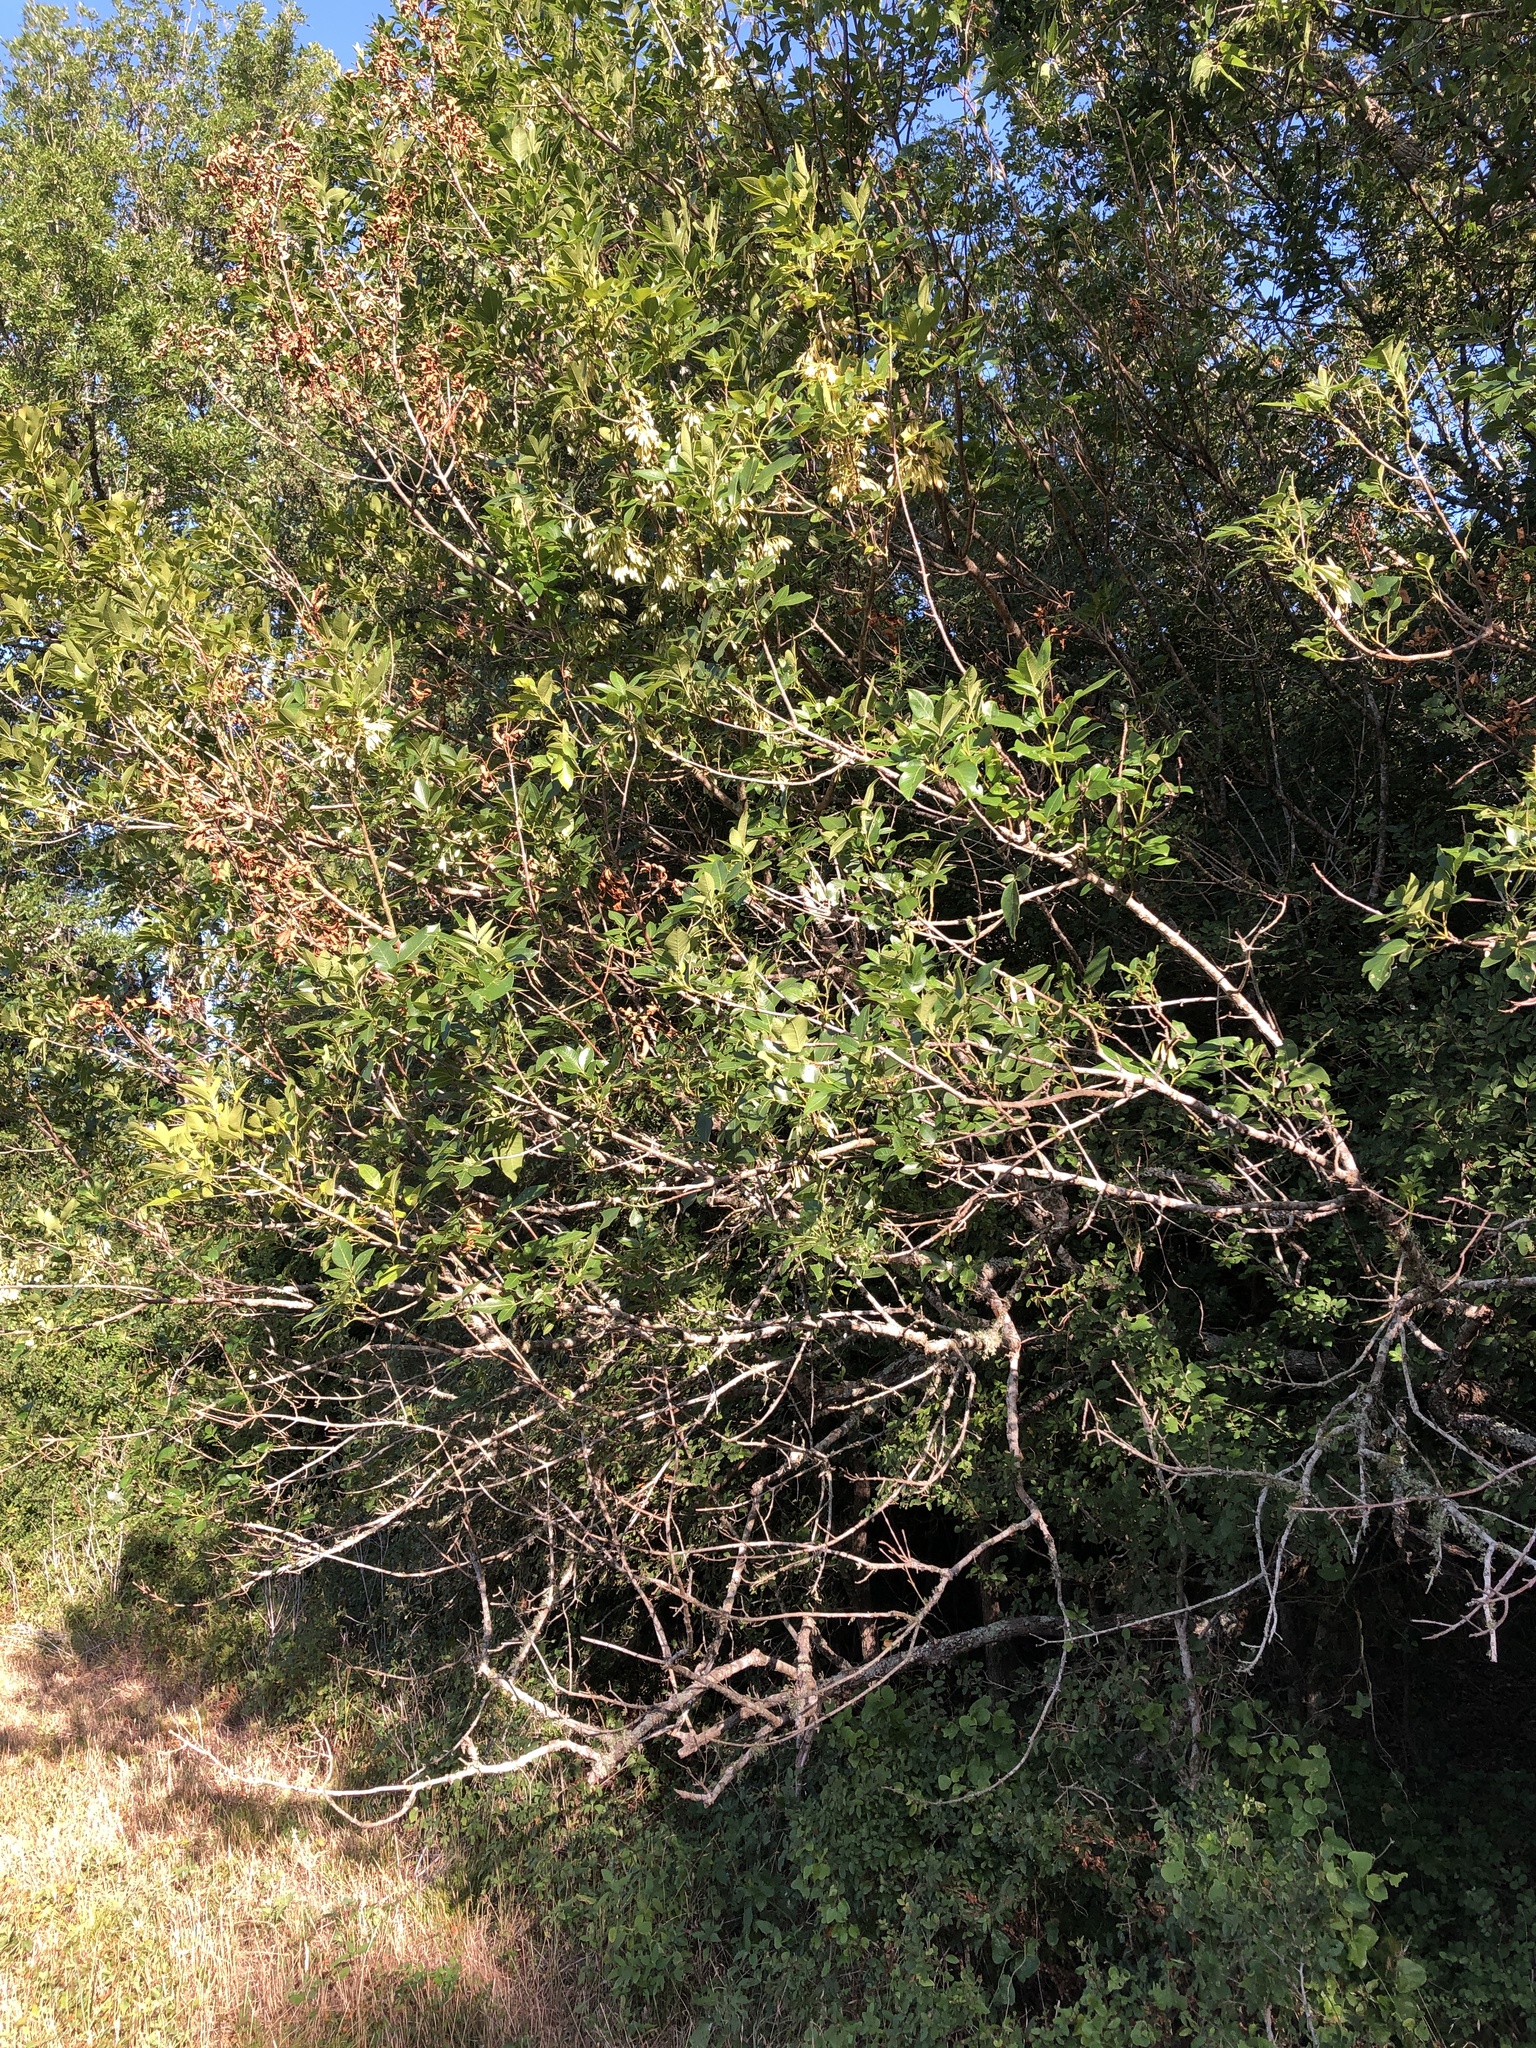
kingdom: Plantae
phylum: Tracheophyta
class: Magnoliopsida
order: Lamiales
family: Oleaceae
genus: Fraxinus
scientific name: Fraxinus pennsylvanica
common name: Green ash
